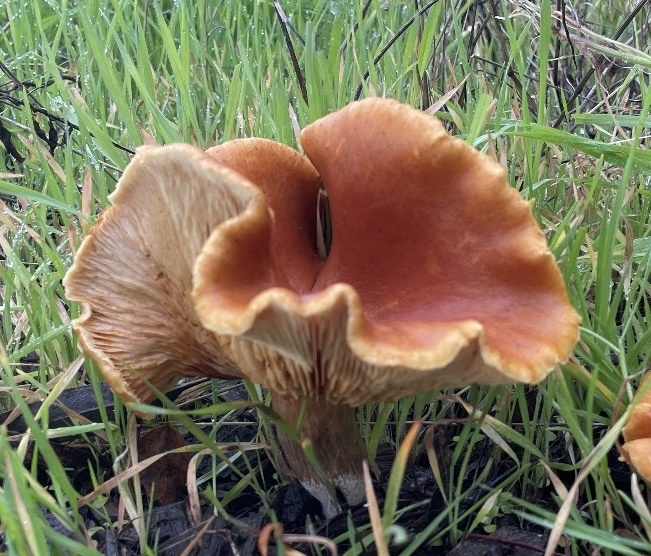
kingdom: Fungi
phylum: Basidiomycota
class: Agaricomycetes
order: Agaricales
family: Hymenogastraceae
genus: Gymnopilus
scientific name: Gymnopilus aurantiophyllus
